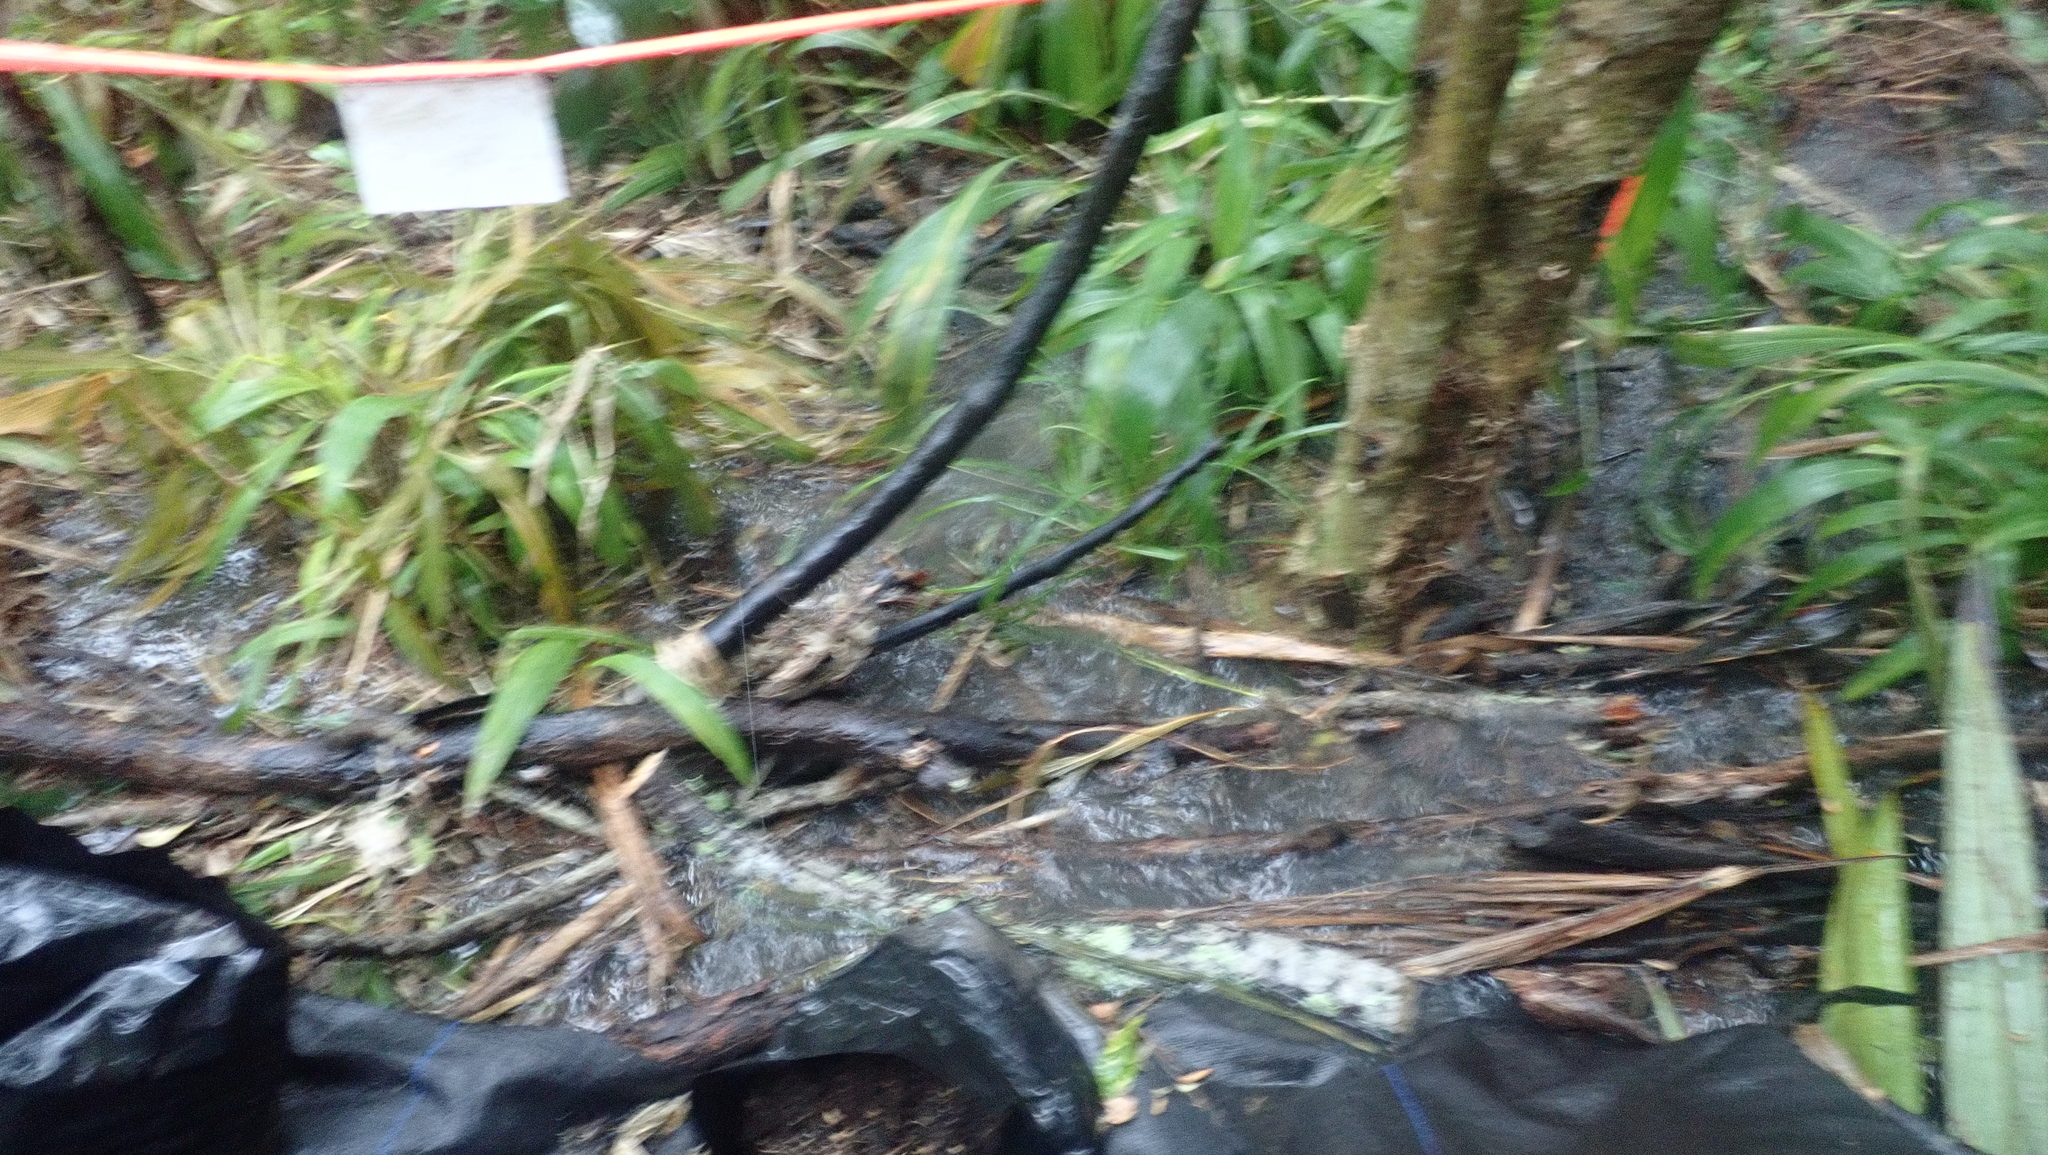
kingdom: Plantae
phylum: Tracheophyta
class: Liliopsida
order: Poales
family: Poaceae
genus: Setaria
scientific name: Setaria palmifolia
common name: Broadleaved bristlegrass
